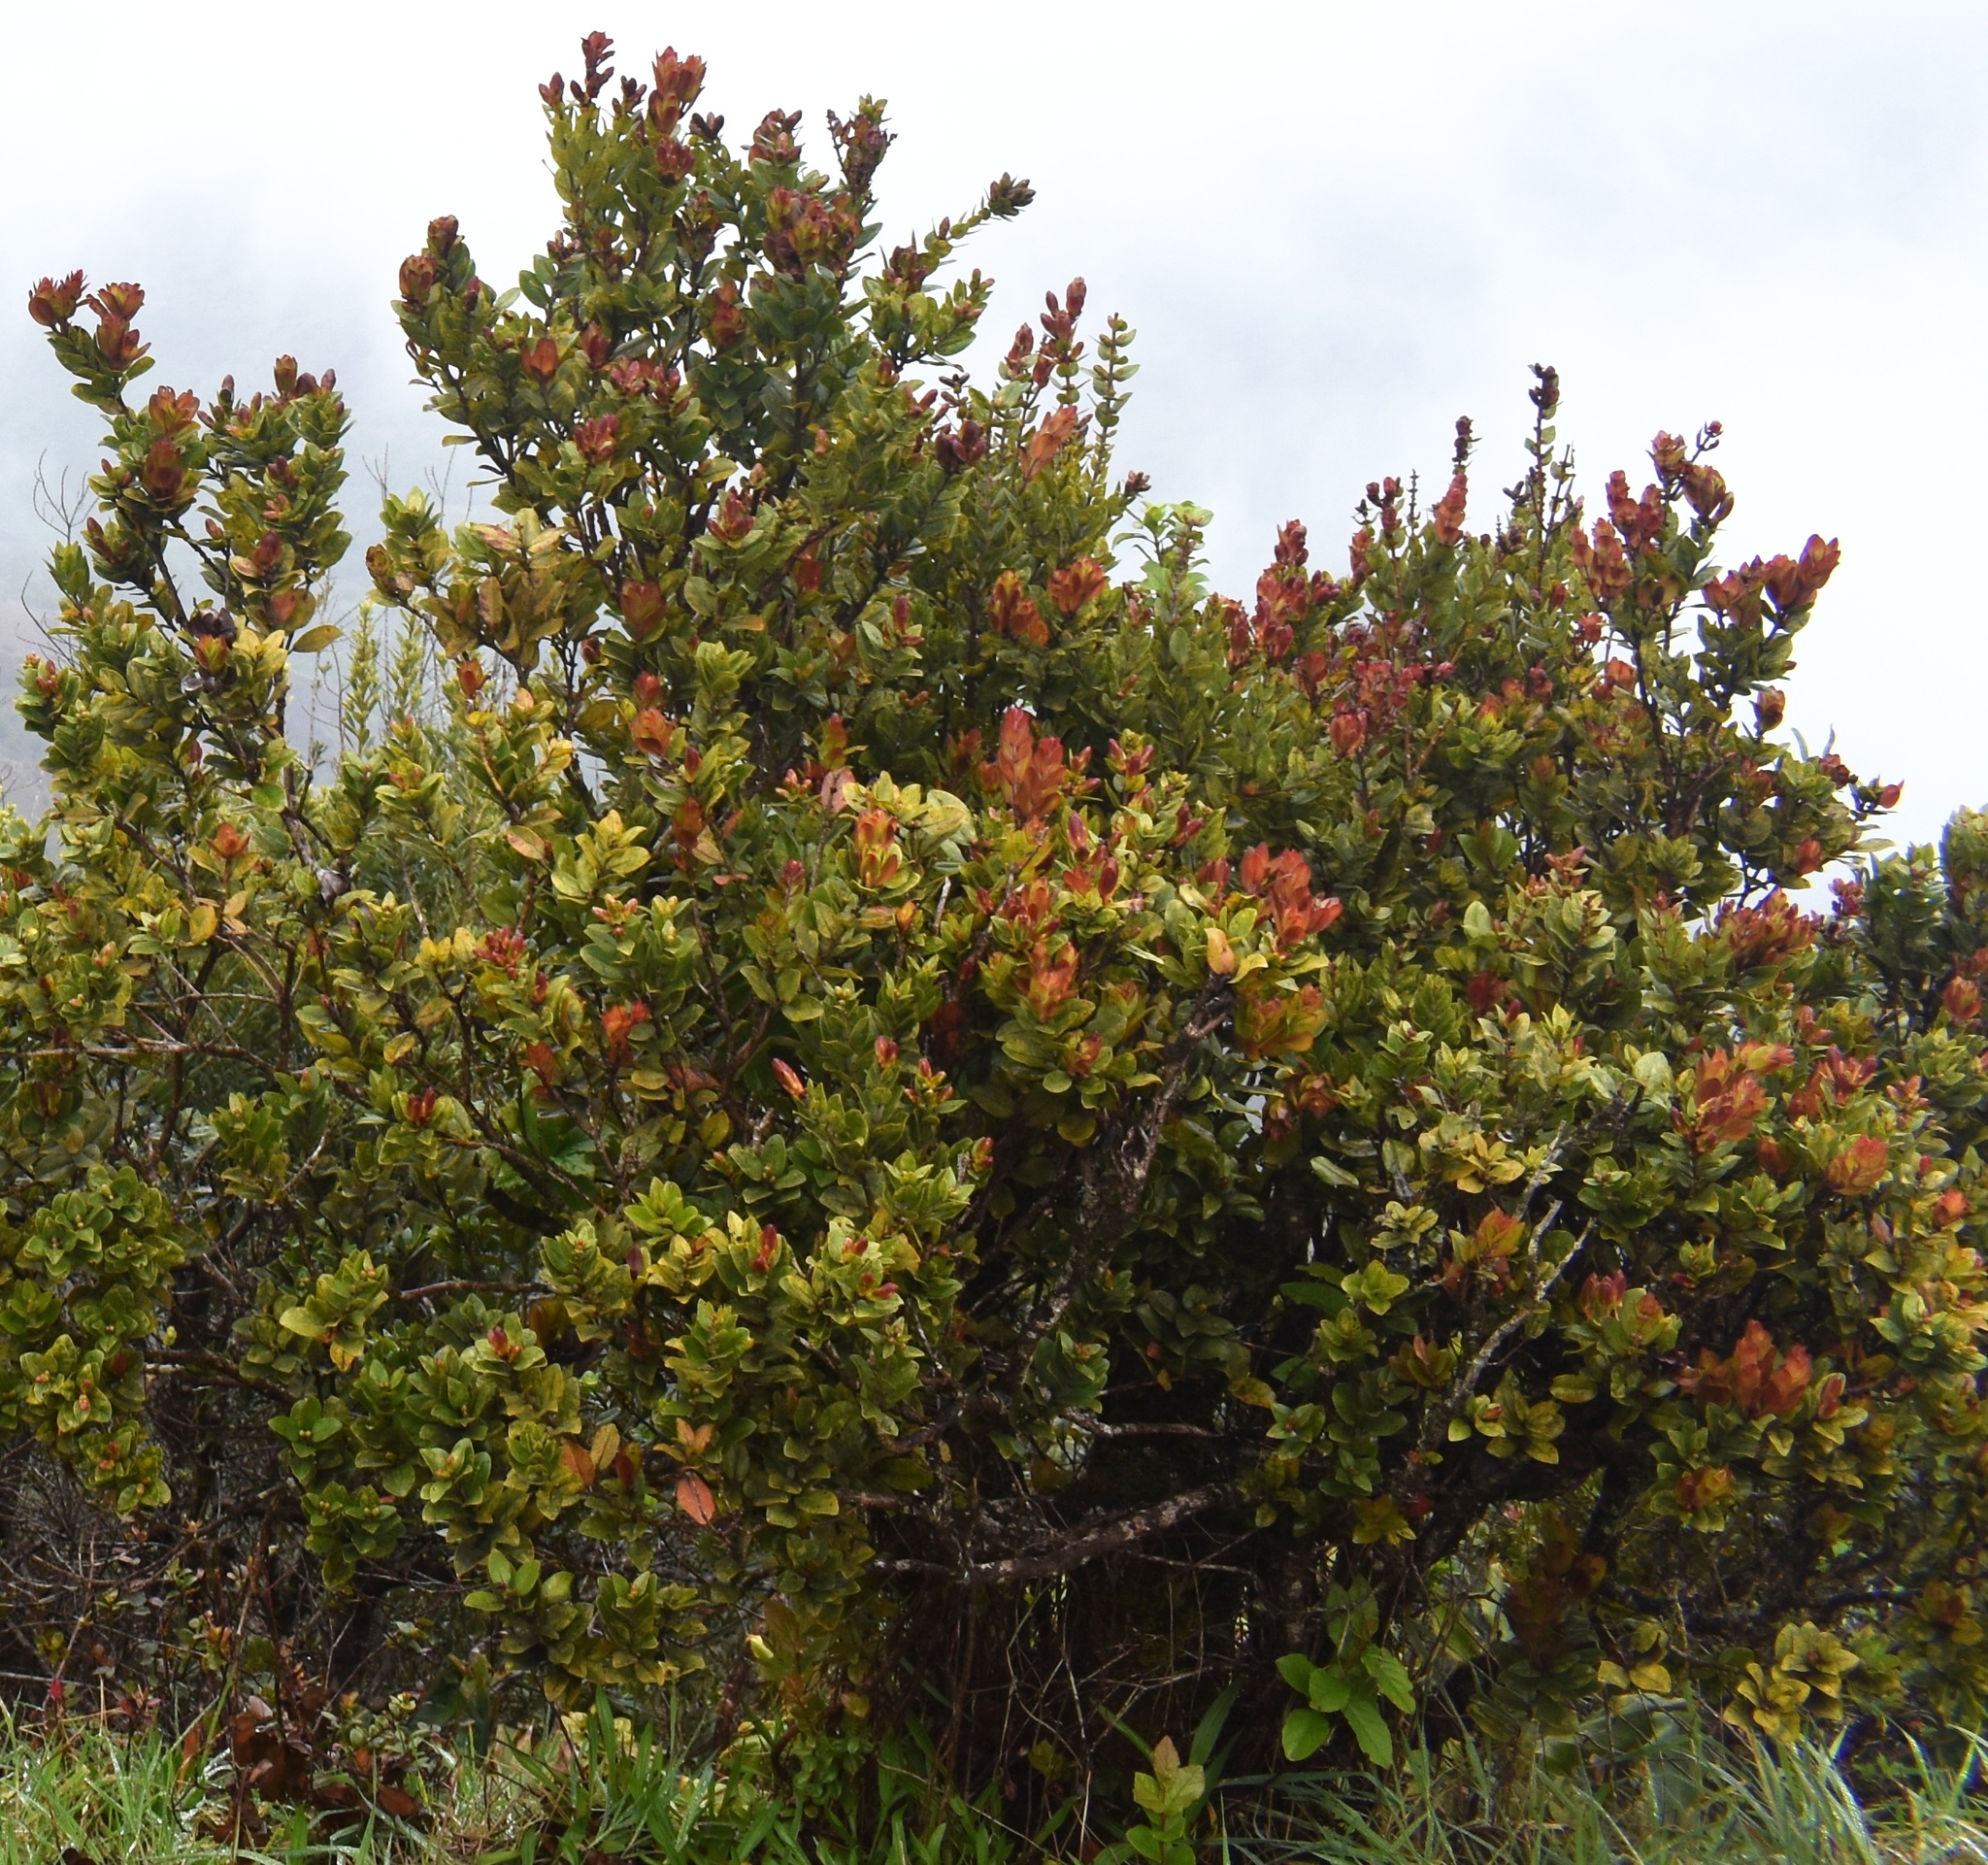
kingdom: Plantae
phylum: Tracheophyta
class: Magnoliopsida
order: Myrtales
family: Myrtaceae
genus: Metrosideros
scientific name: Metrosideros polymorpha
